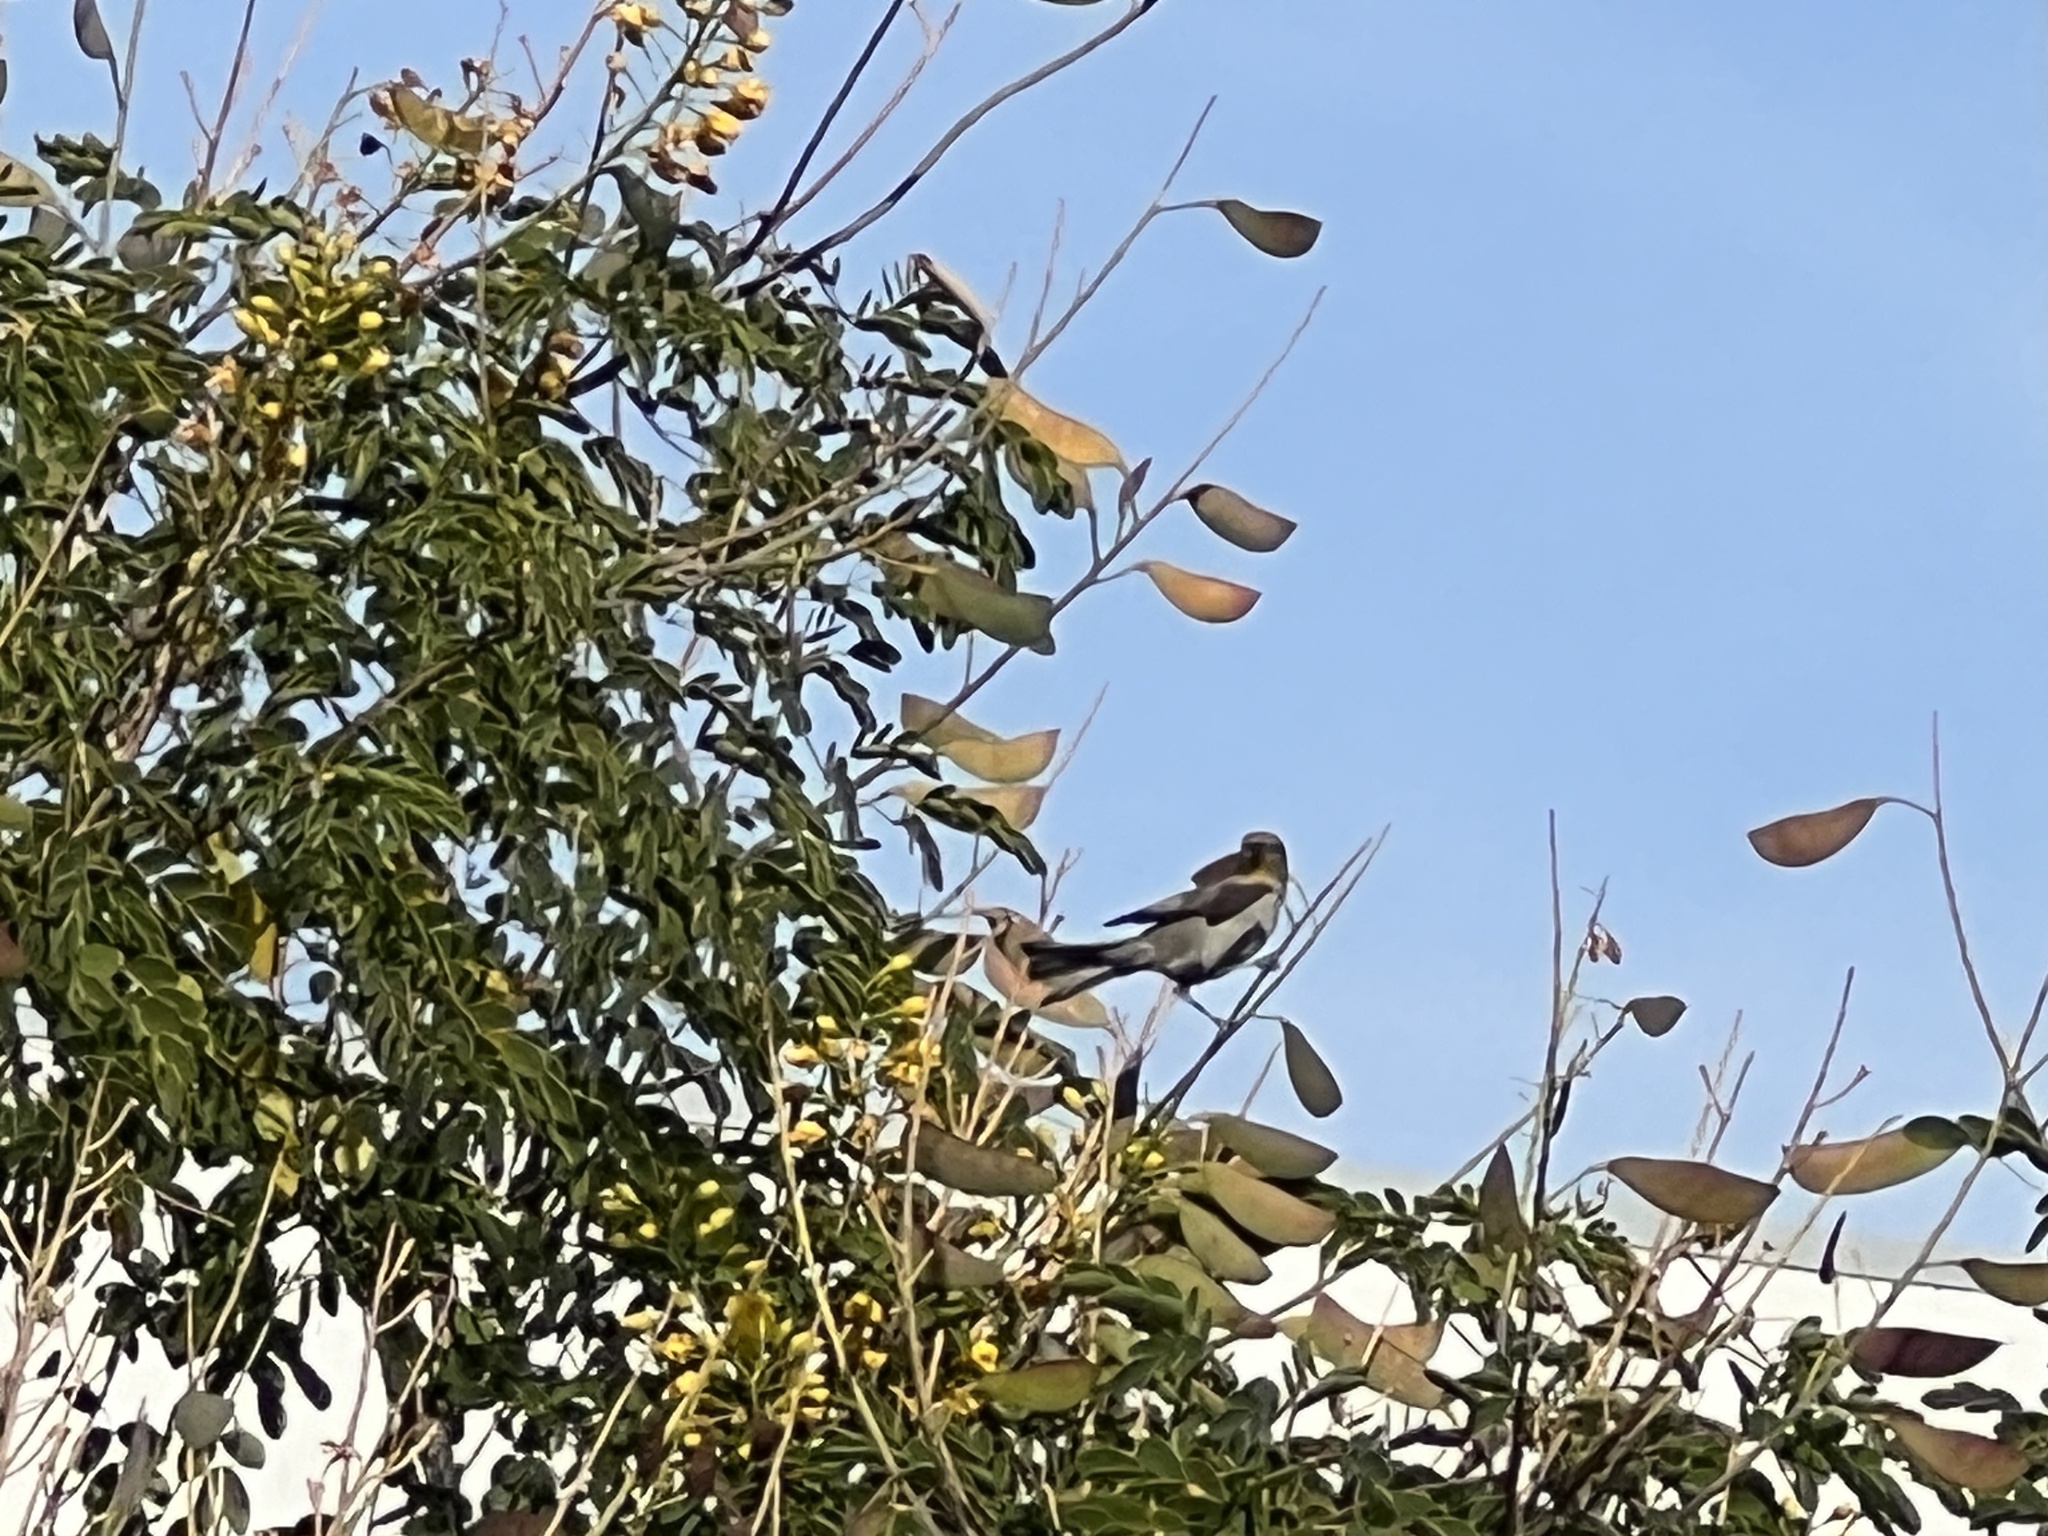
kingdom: Animalia
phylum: Chordata
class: Aves
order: Passeriformes
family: Remizidae
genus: Auriparus
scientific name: Auriparus flaviceps
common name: Verdin
